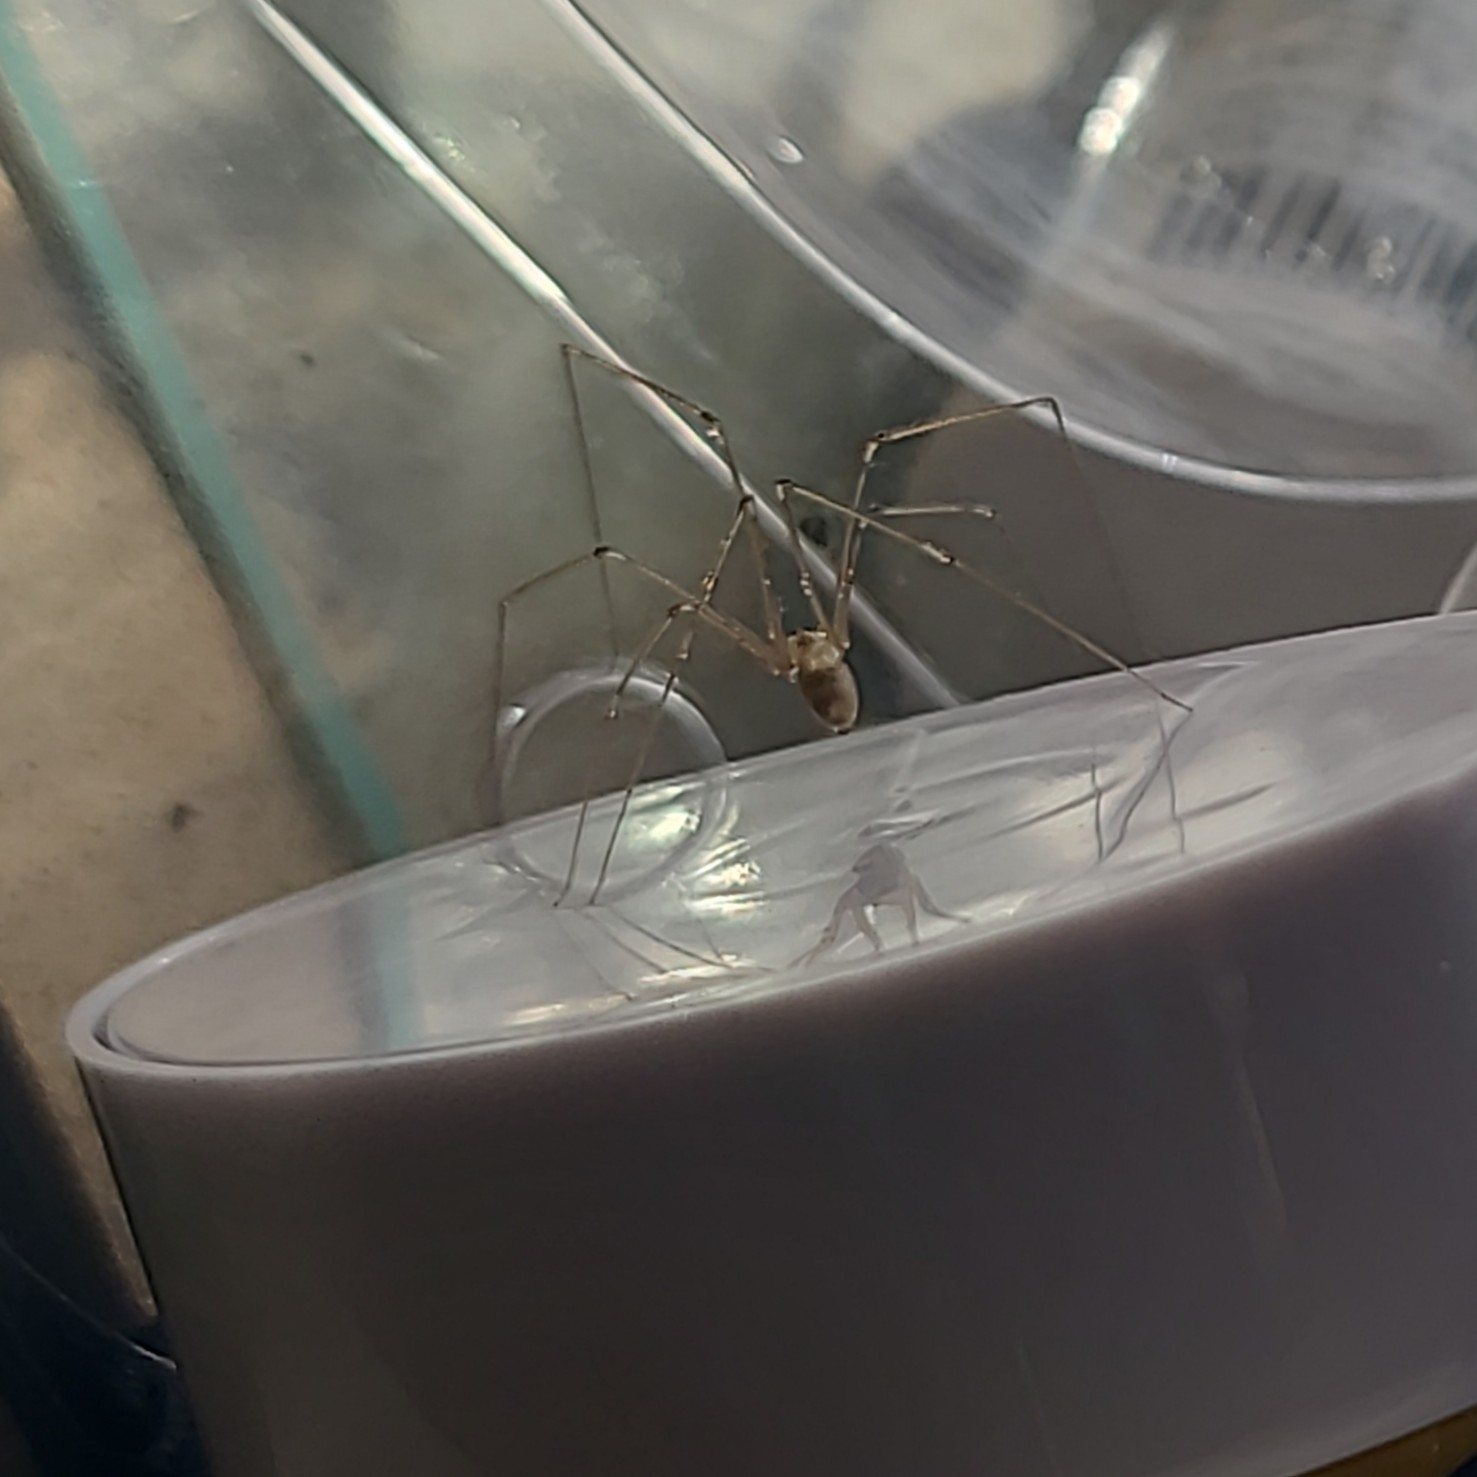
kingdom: Animalia
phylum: Arthropoda
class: Arachnida
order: Araneae
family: Pholcidae
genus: Pholcus
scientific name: Pholcus phalangioides
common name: Longbodied cellar spider
